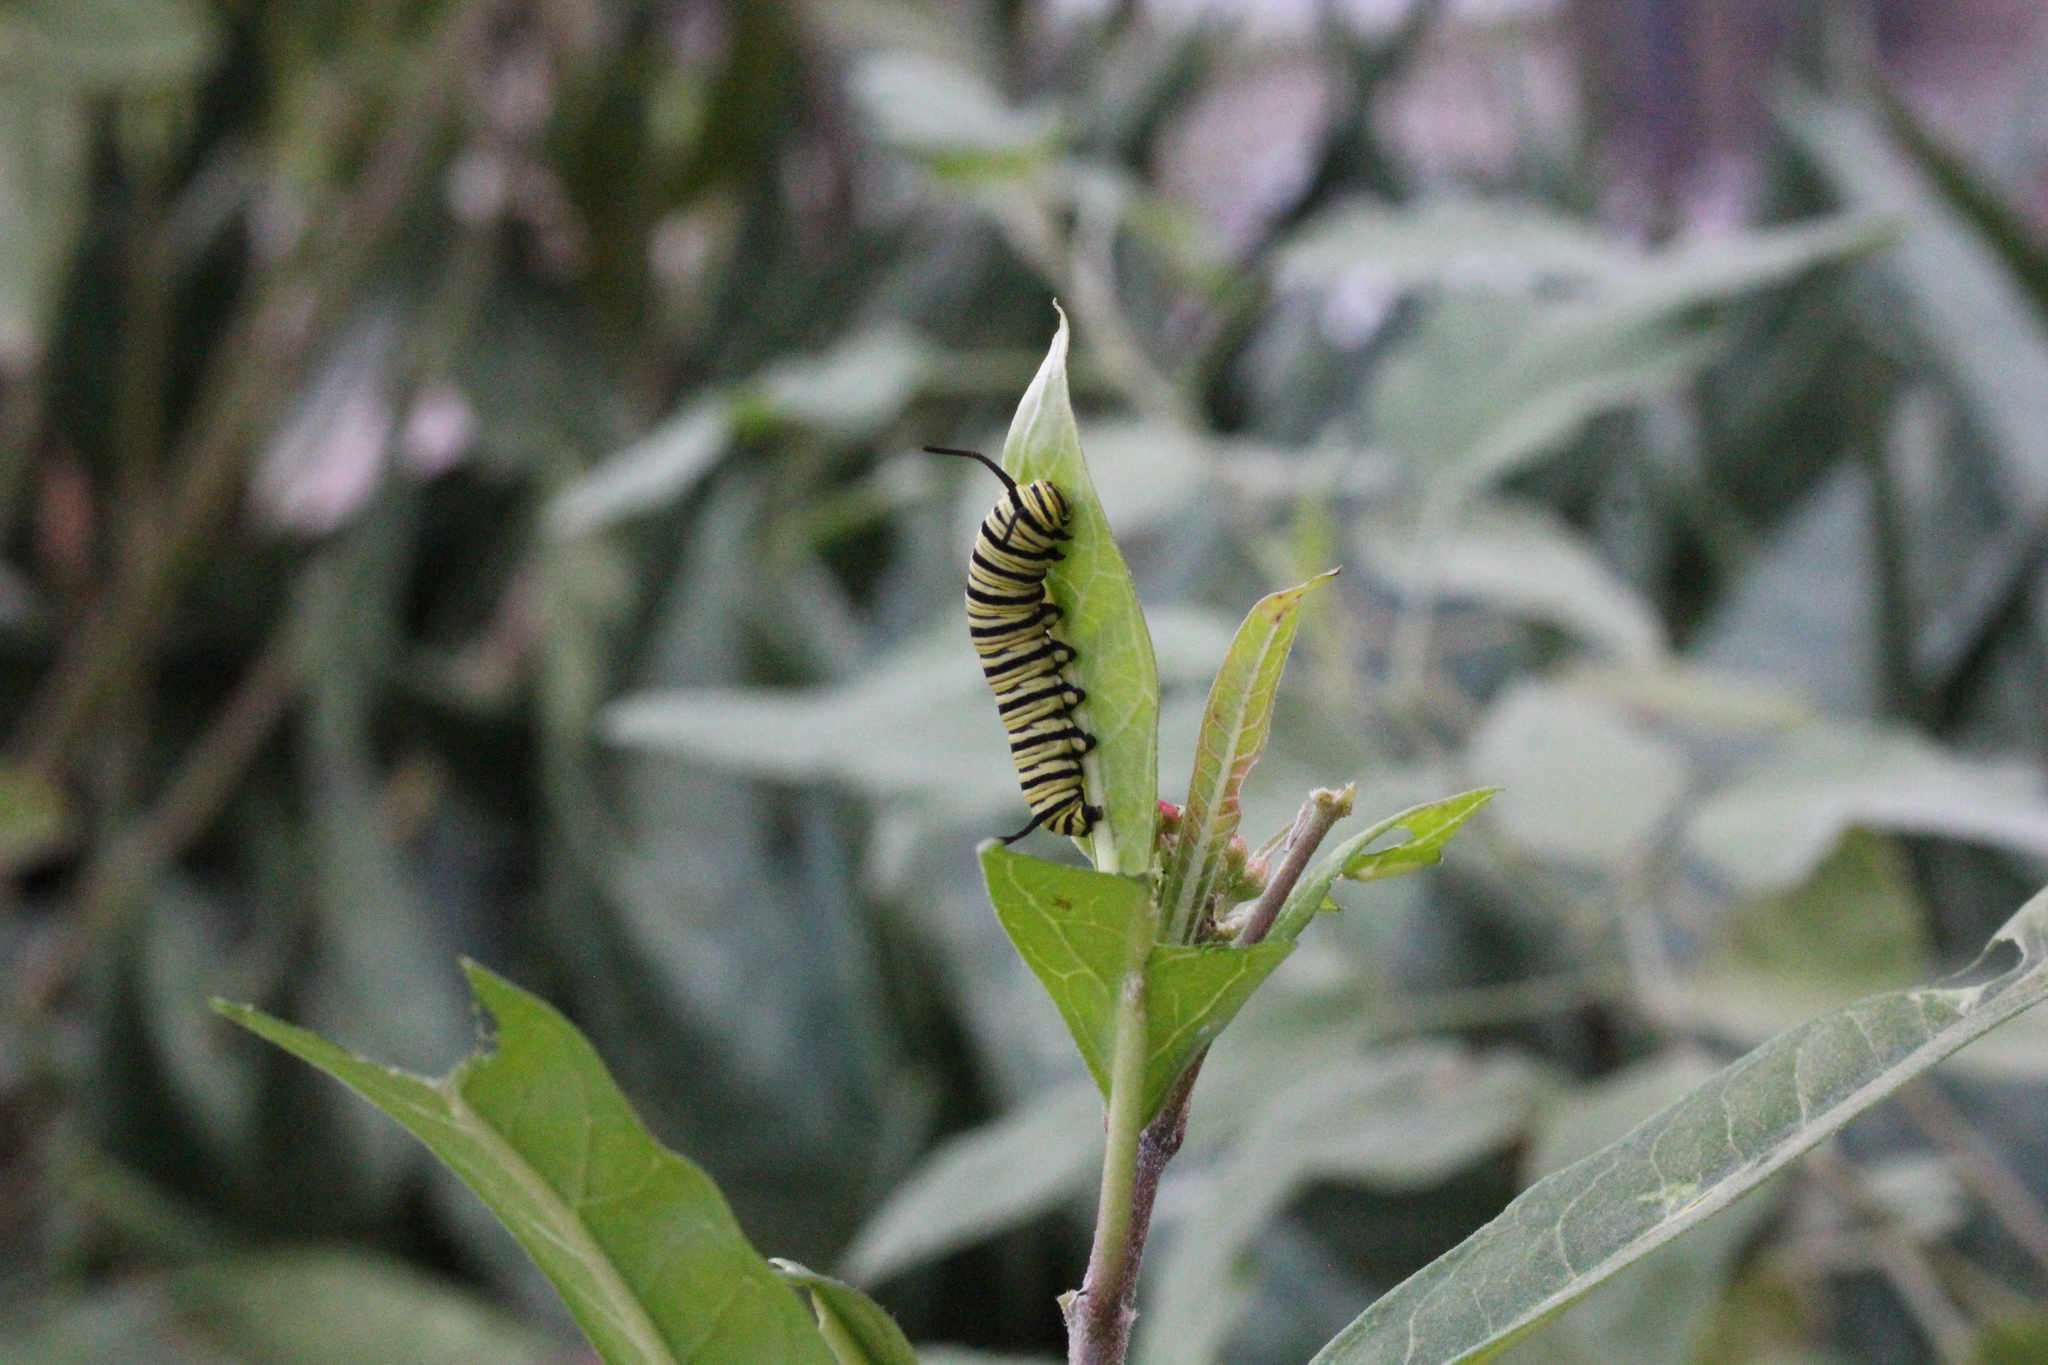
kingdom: Animalia
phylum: Arthropoda
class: Insecta
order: Lepidoptera
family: Nymphalidae
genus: Danaus
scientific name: Danaus erippus
